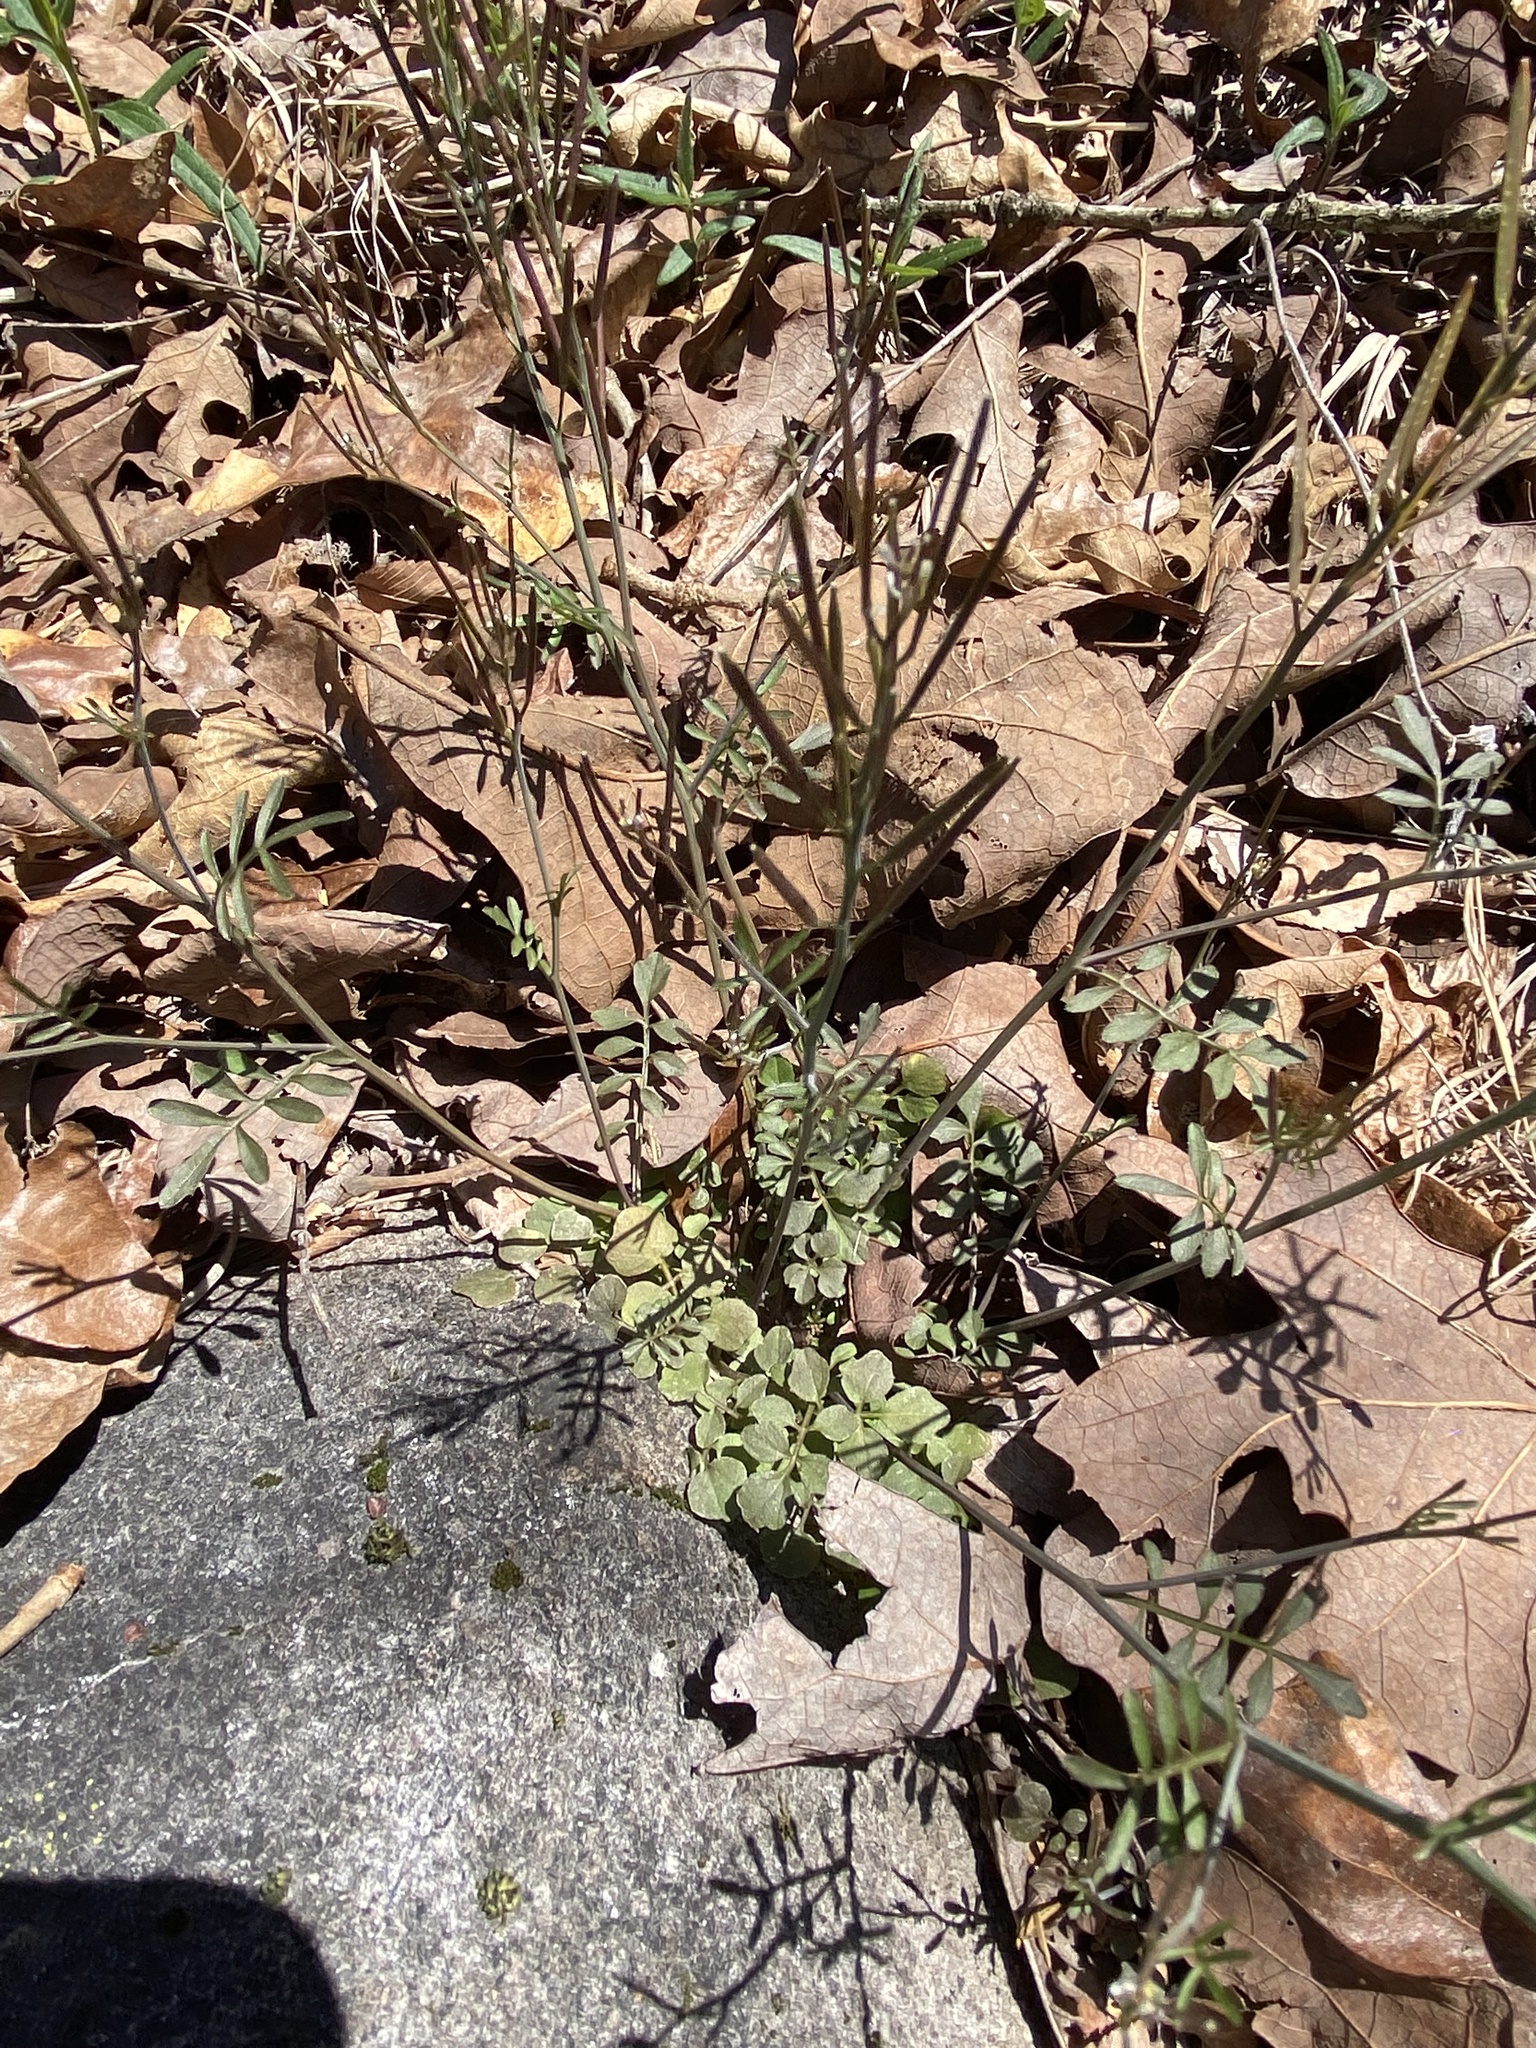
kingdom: Plantae
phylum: Tracheophyta
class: Magnoliopsida
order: Brassicales
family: Brassicaceae
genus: Cardamine
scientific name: Cardamine parviflora
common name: Sand bittercress
